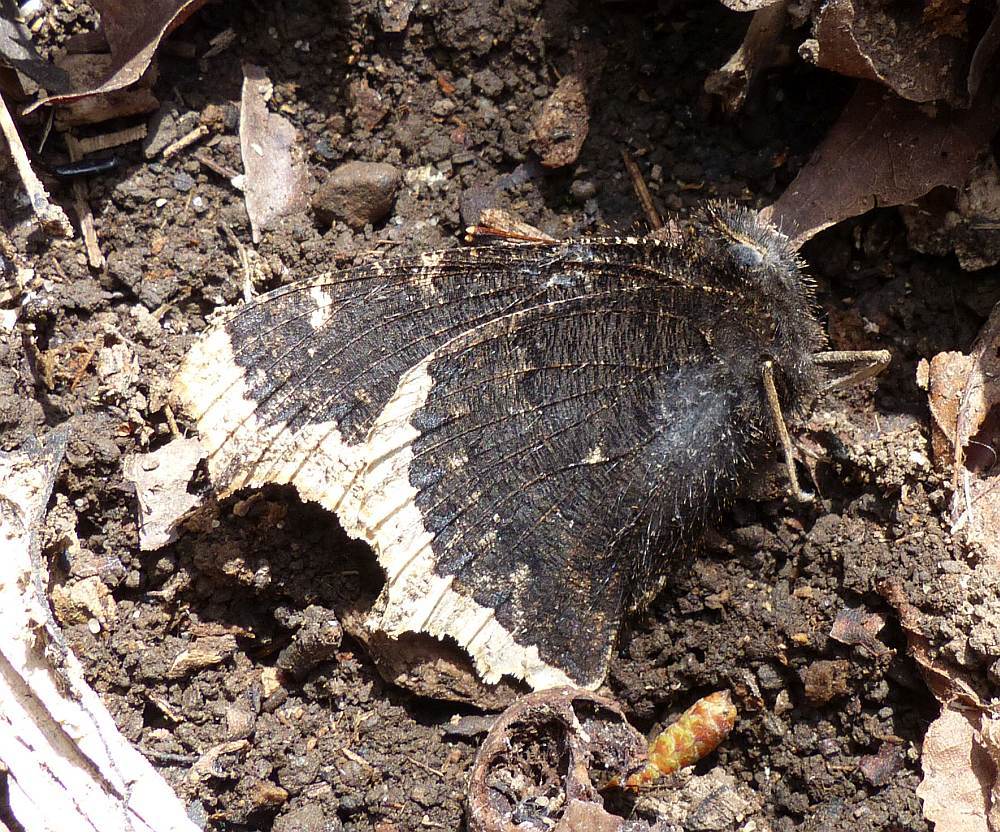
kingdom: Animalia
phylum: Arthropoda
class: Insecta
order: Lepidoptera
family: Nymphalidae
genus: Nymphalis
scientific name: Nymphalis antiopa
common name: Camberwell beauty
